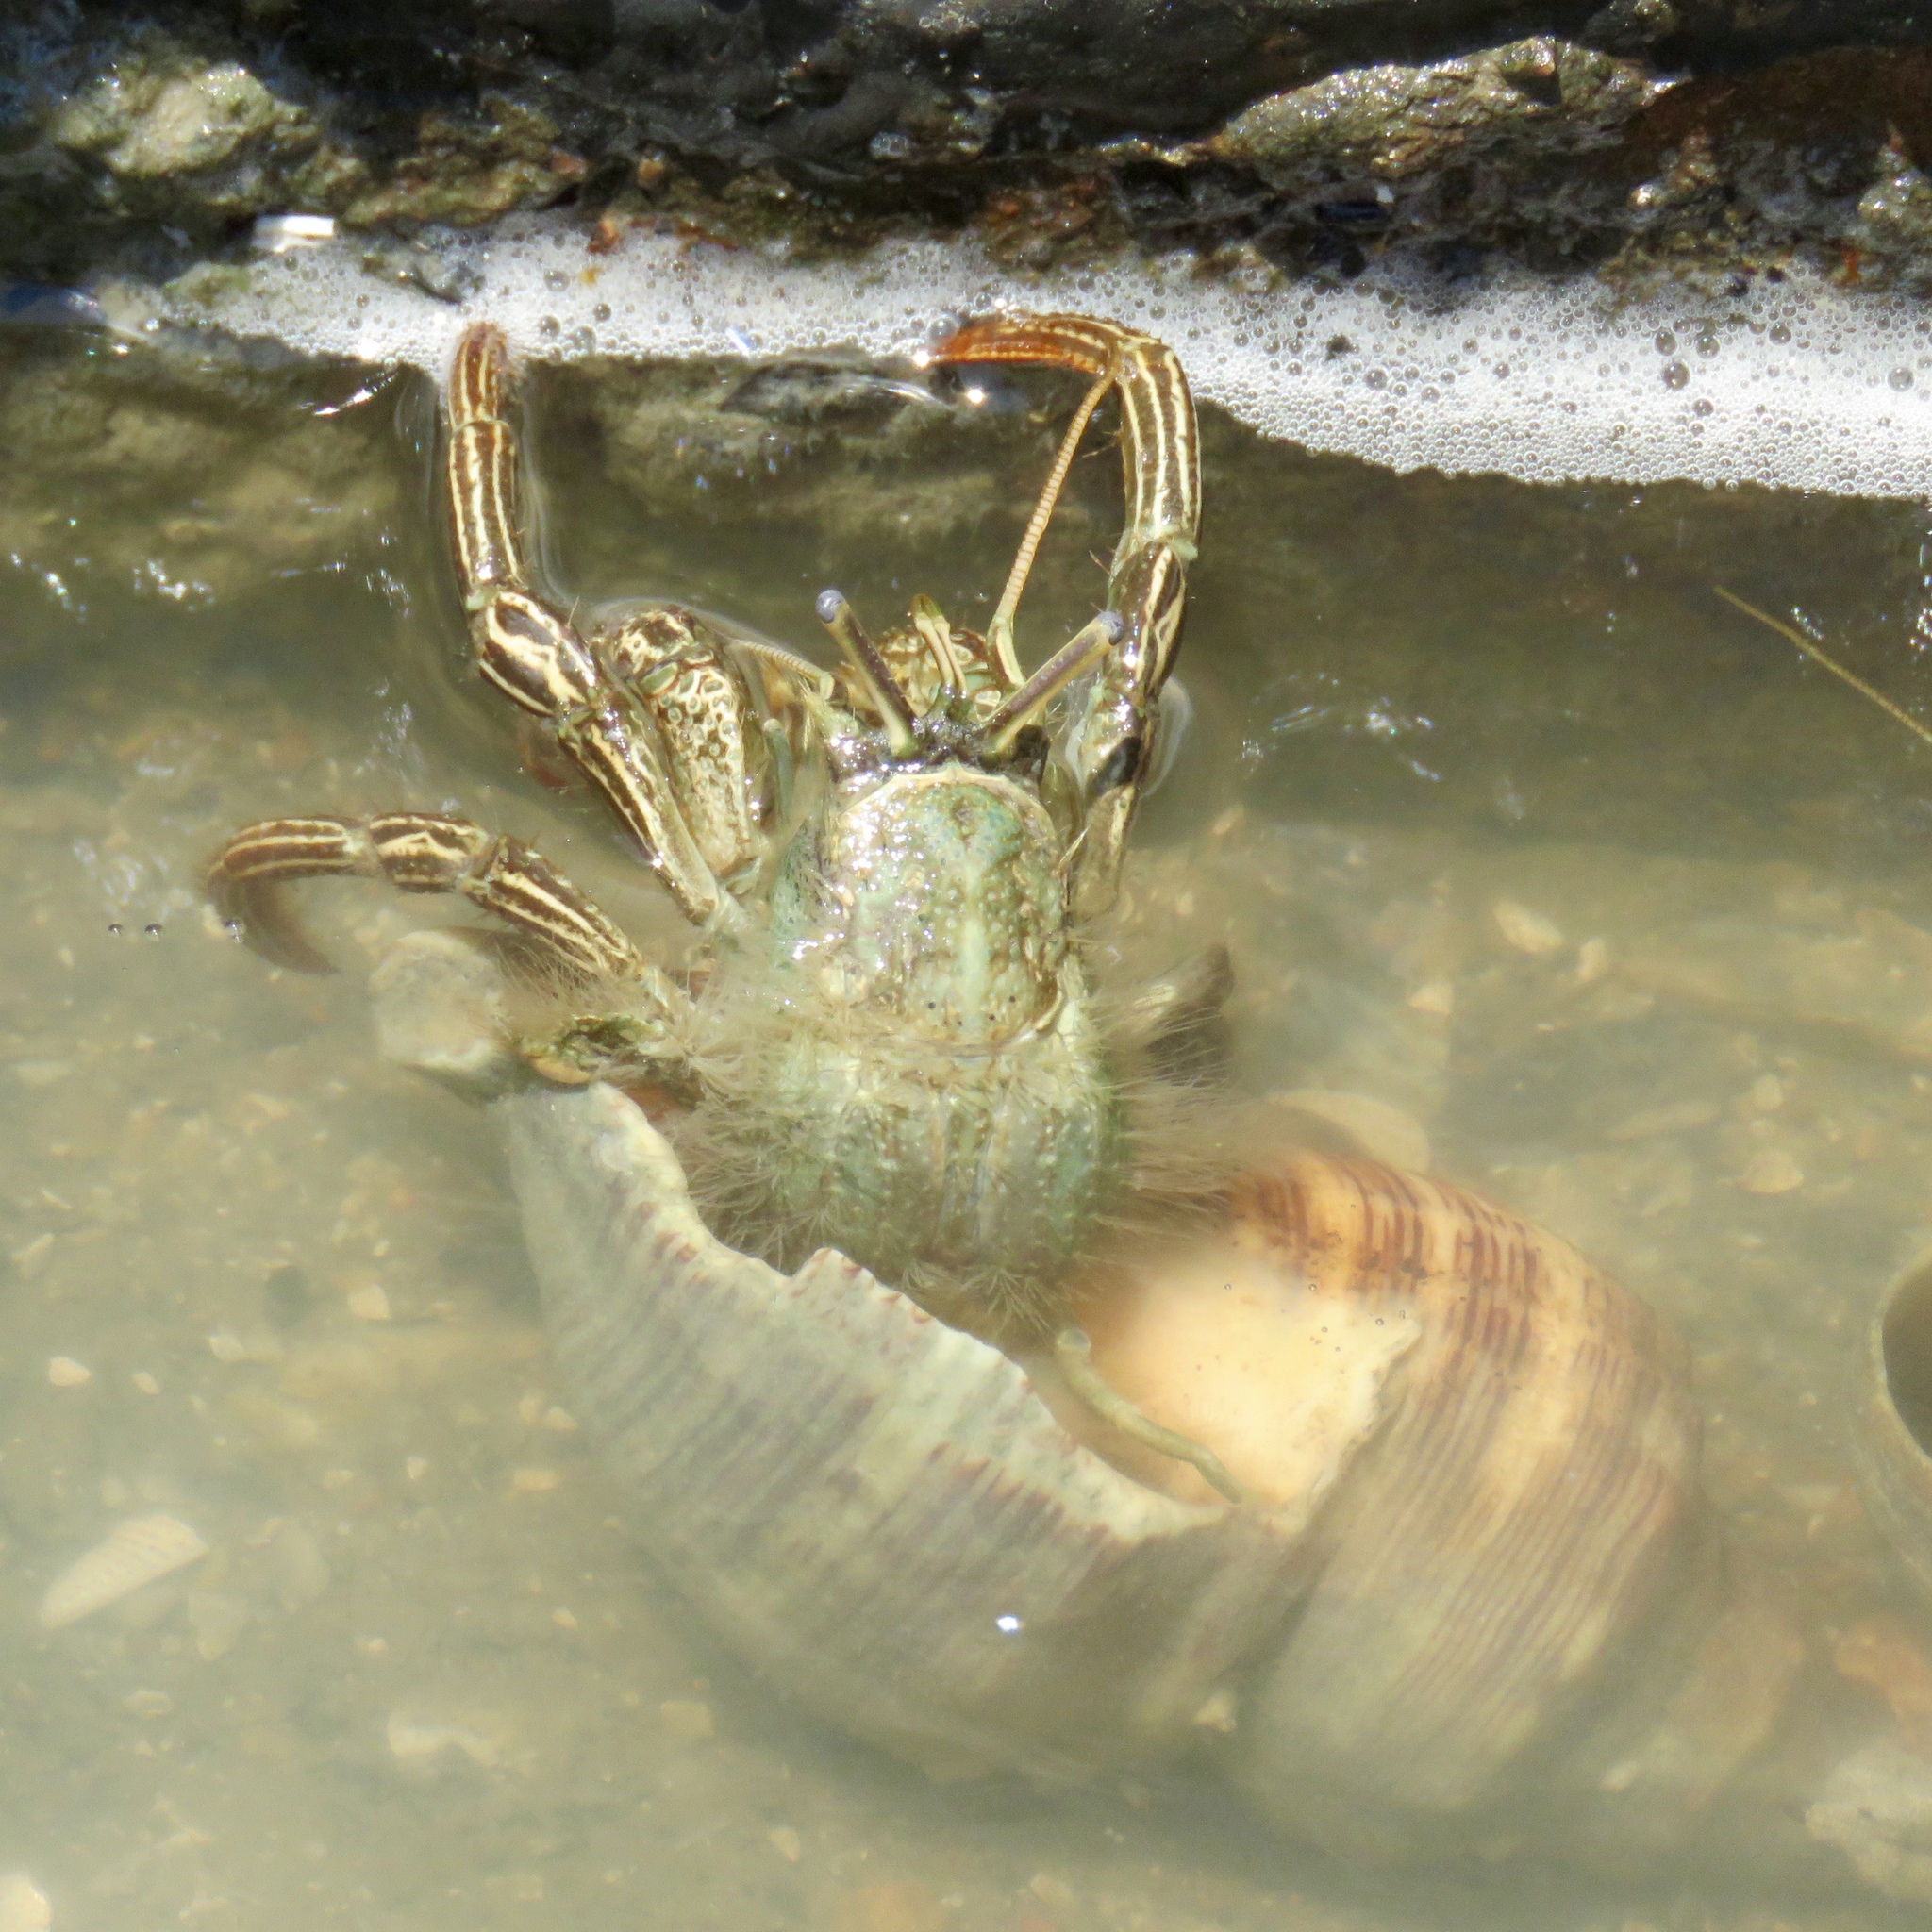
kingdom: Animalia
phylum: Arthropoda
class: Malacostraca
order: Decapoda
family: Diogenidae
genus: Clibanarius
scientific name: Clibanarius vittatus
